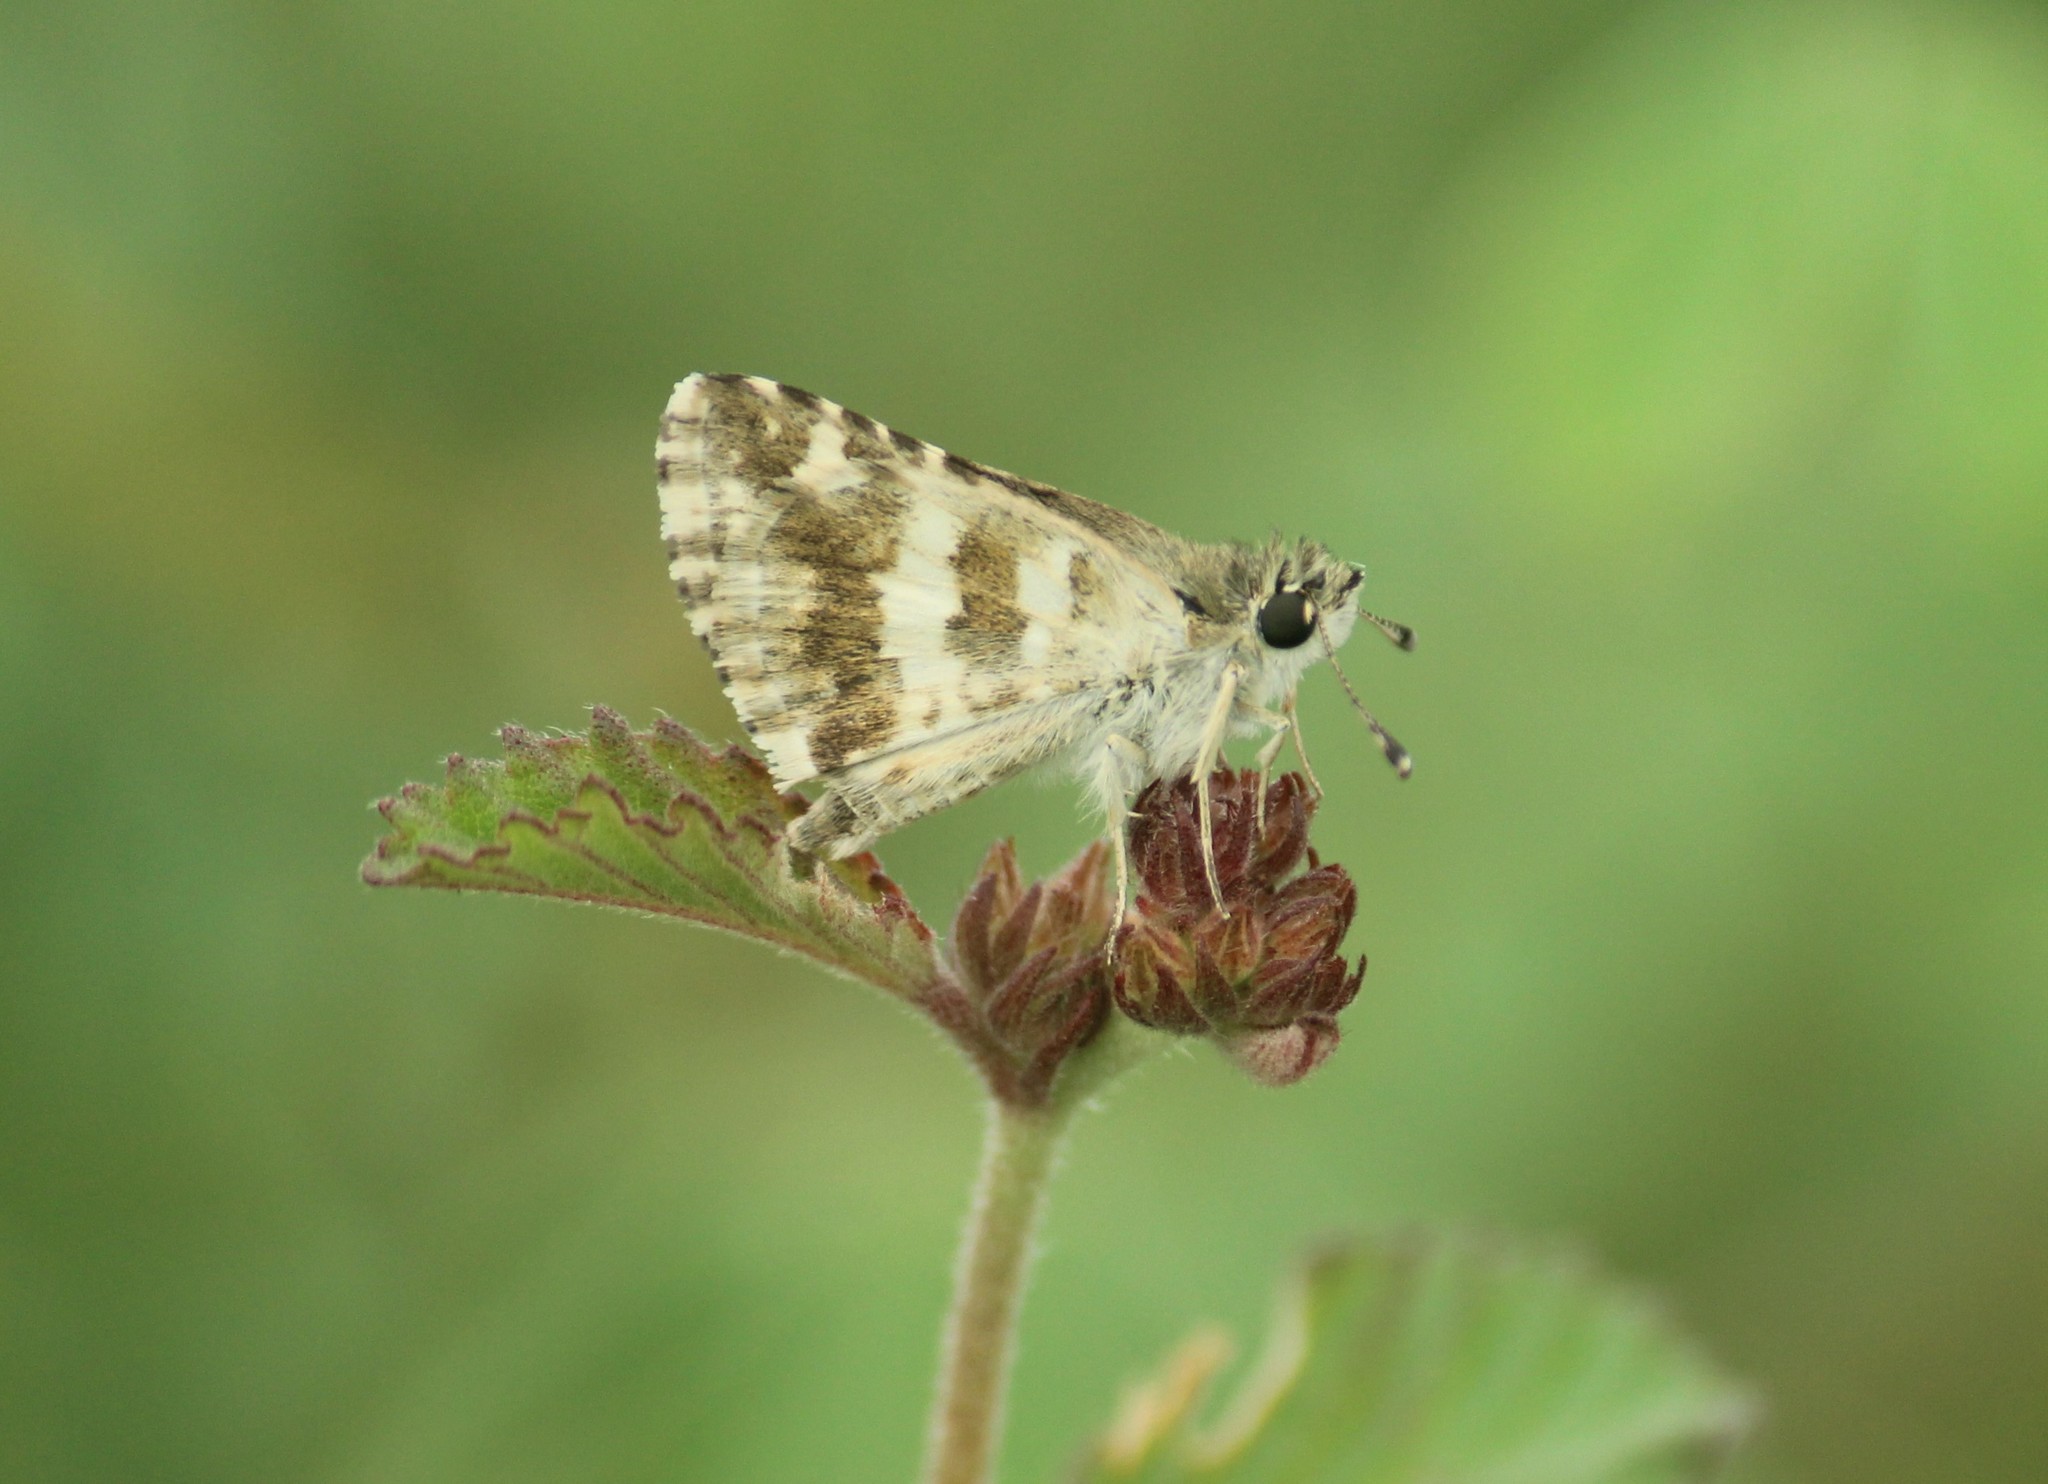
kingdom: Animalia
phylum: Arthropoda
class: Insecta
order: Lepidoptera
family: Hesperiidae
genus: Spialia
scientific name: Spialia galba
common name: Indian skipper
